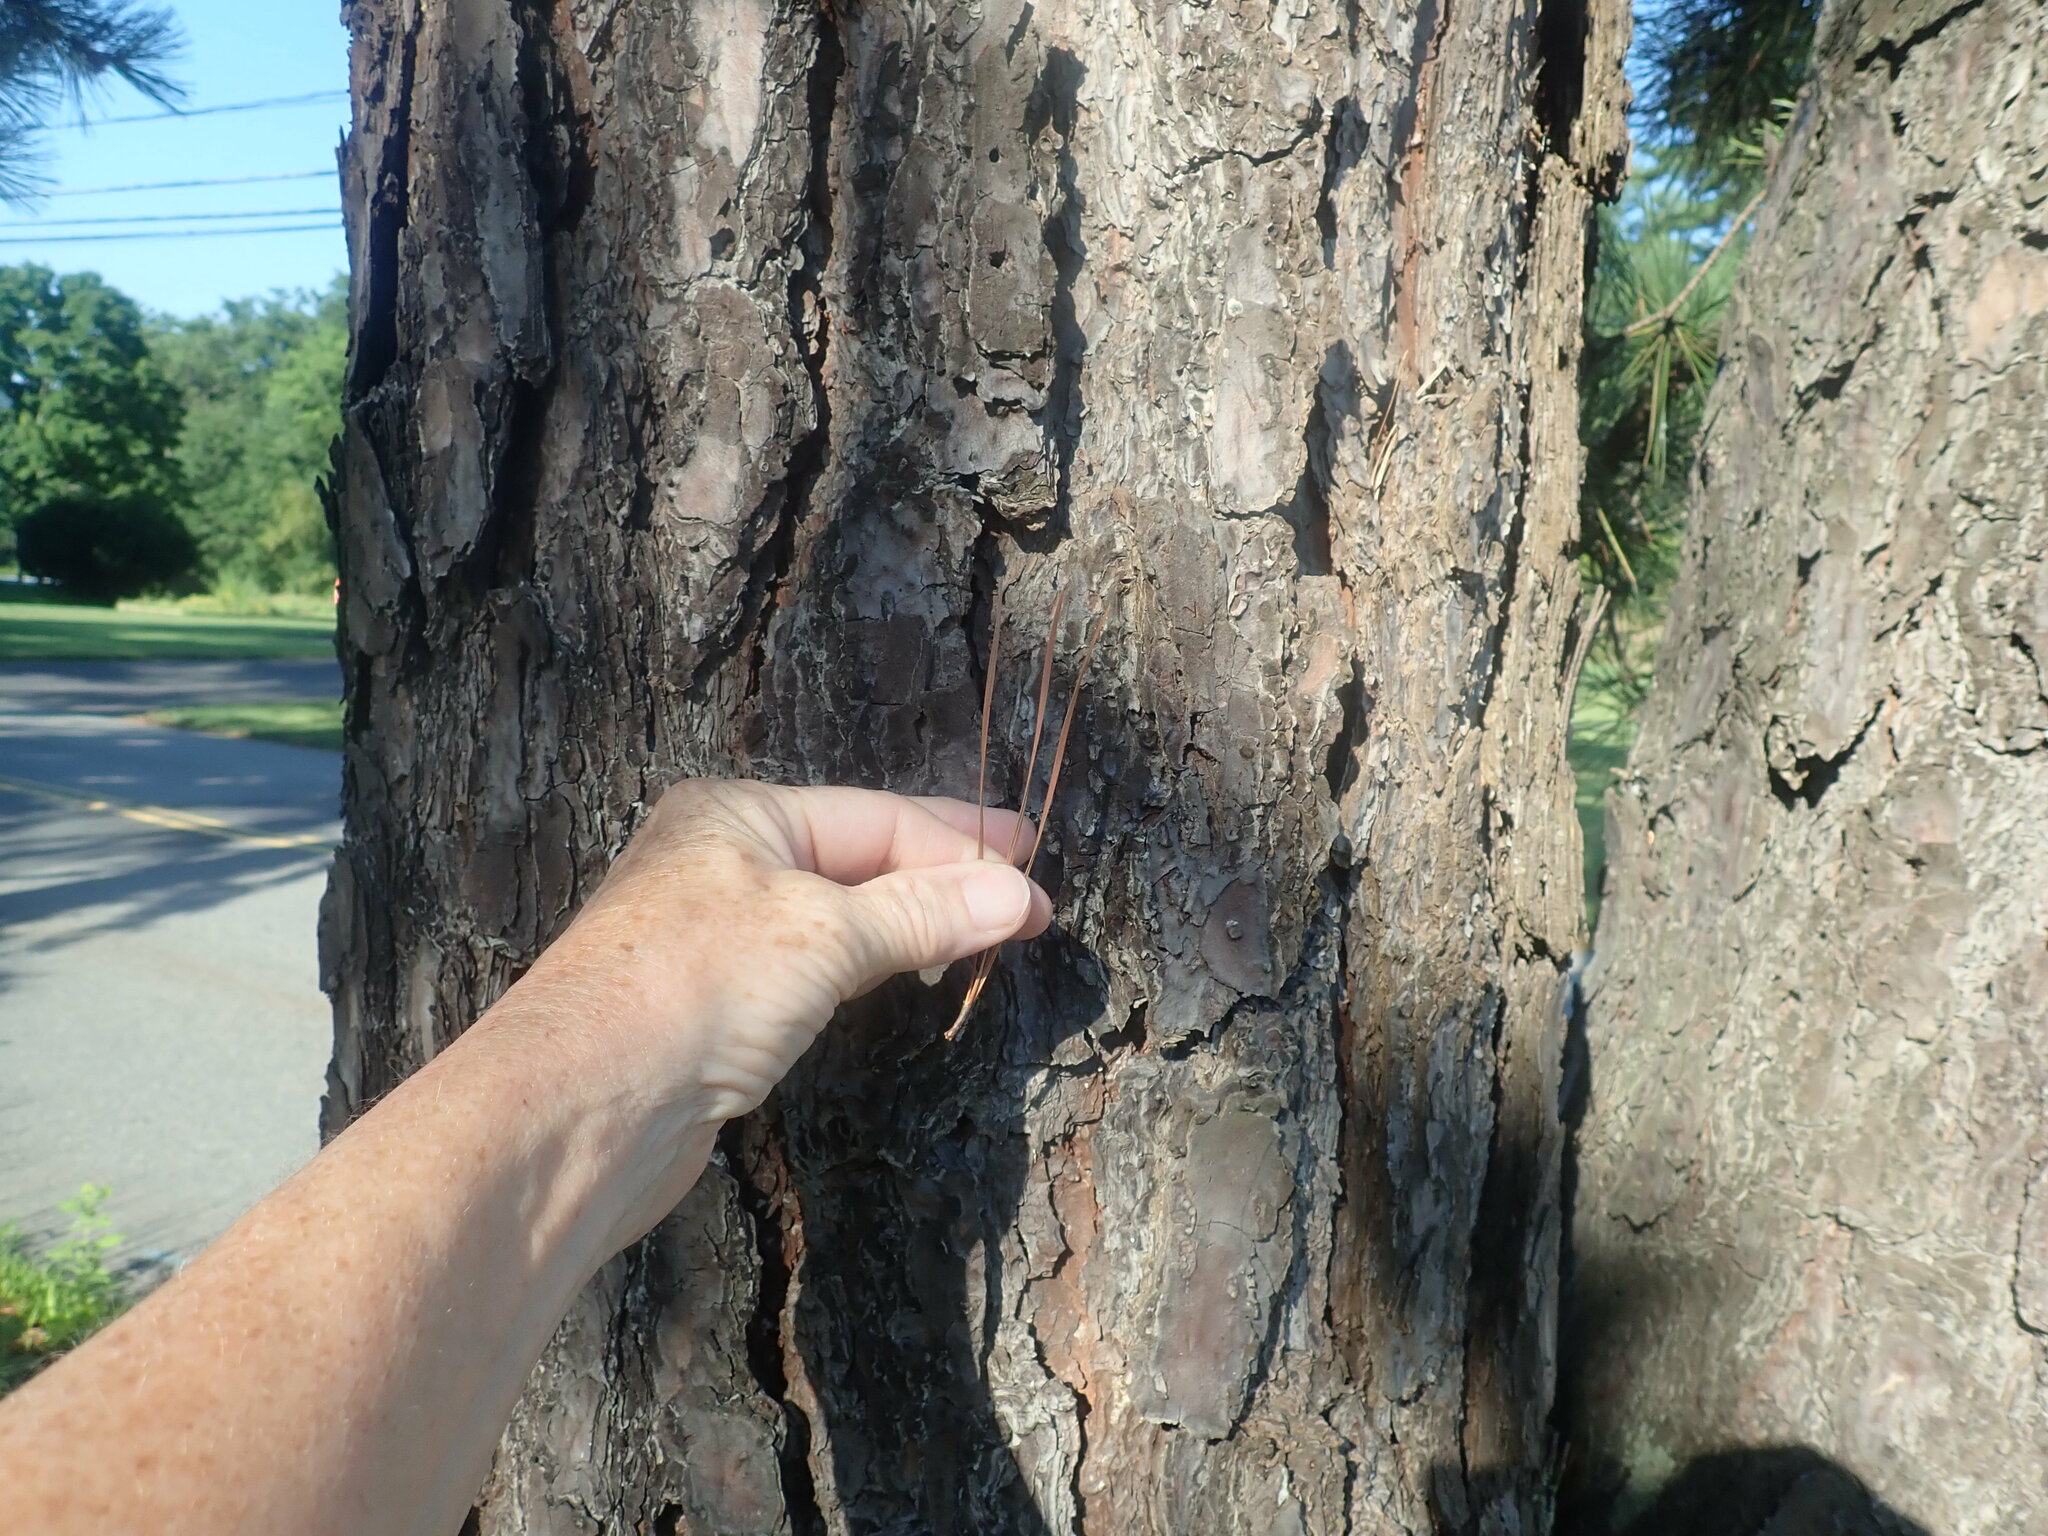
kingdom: Plantae
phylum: Tracheophyta
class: Pinopsida
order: Pinales
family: Pinaceae
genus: Pinus
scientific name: Pinus rigida
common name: Pitch pine
